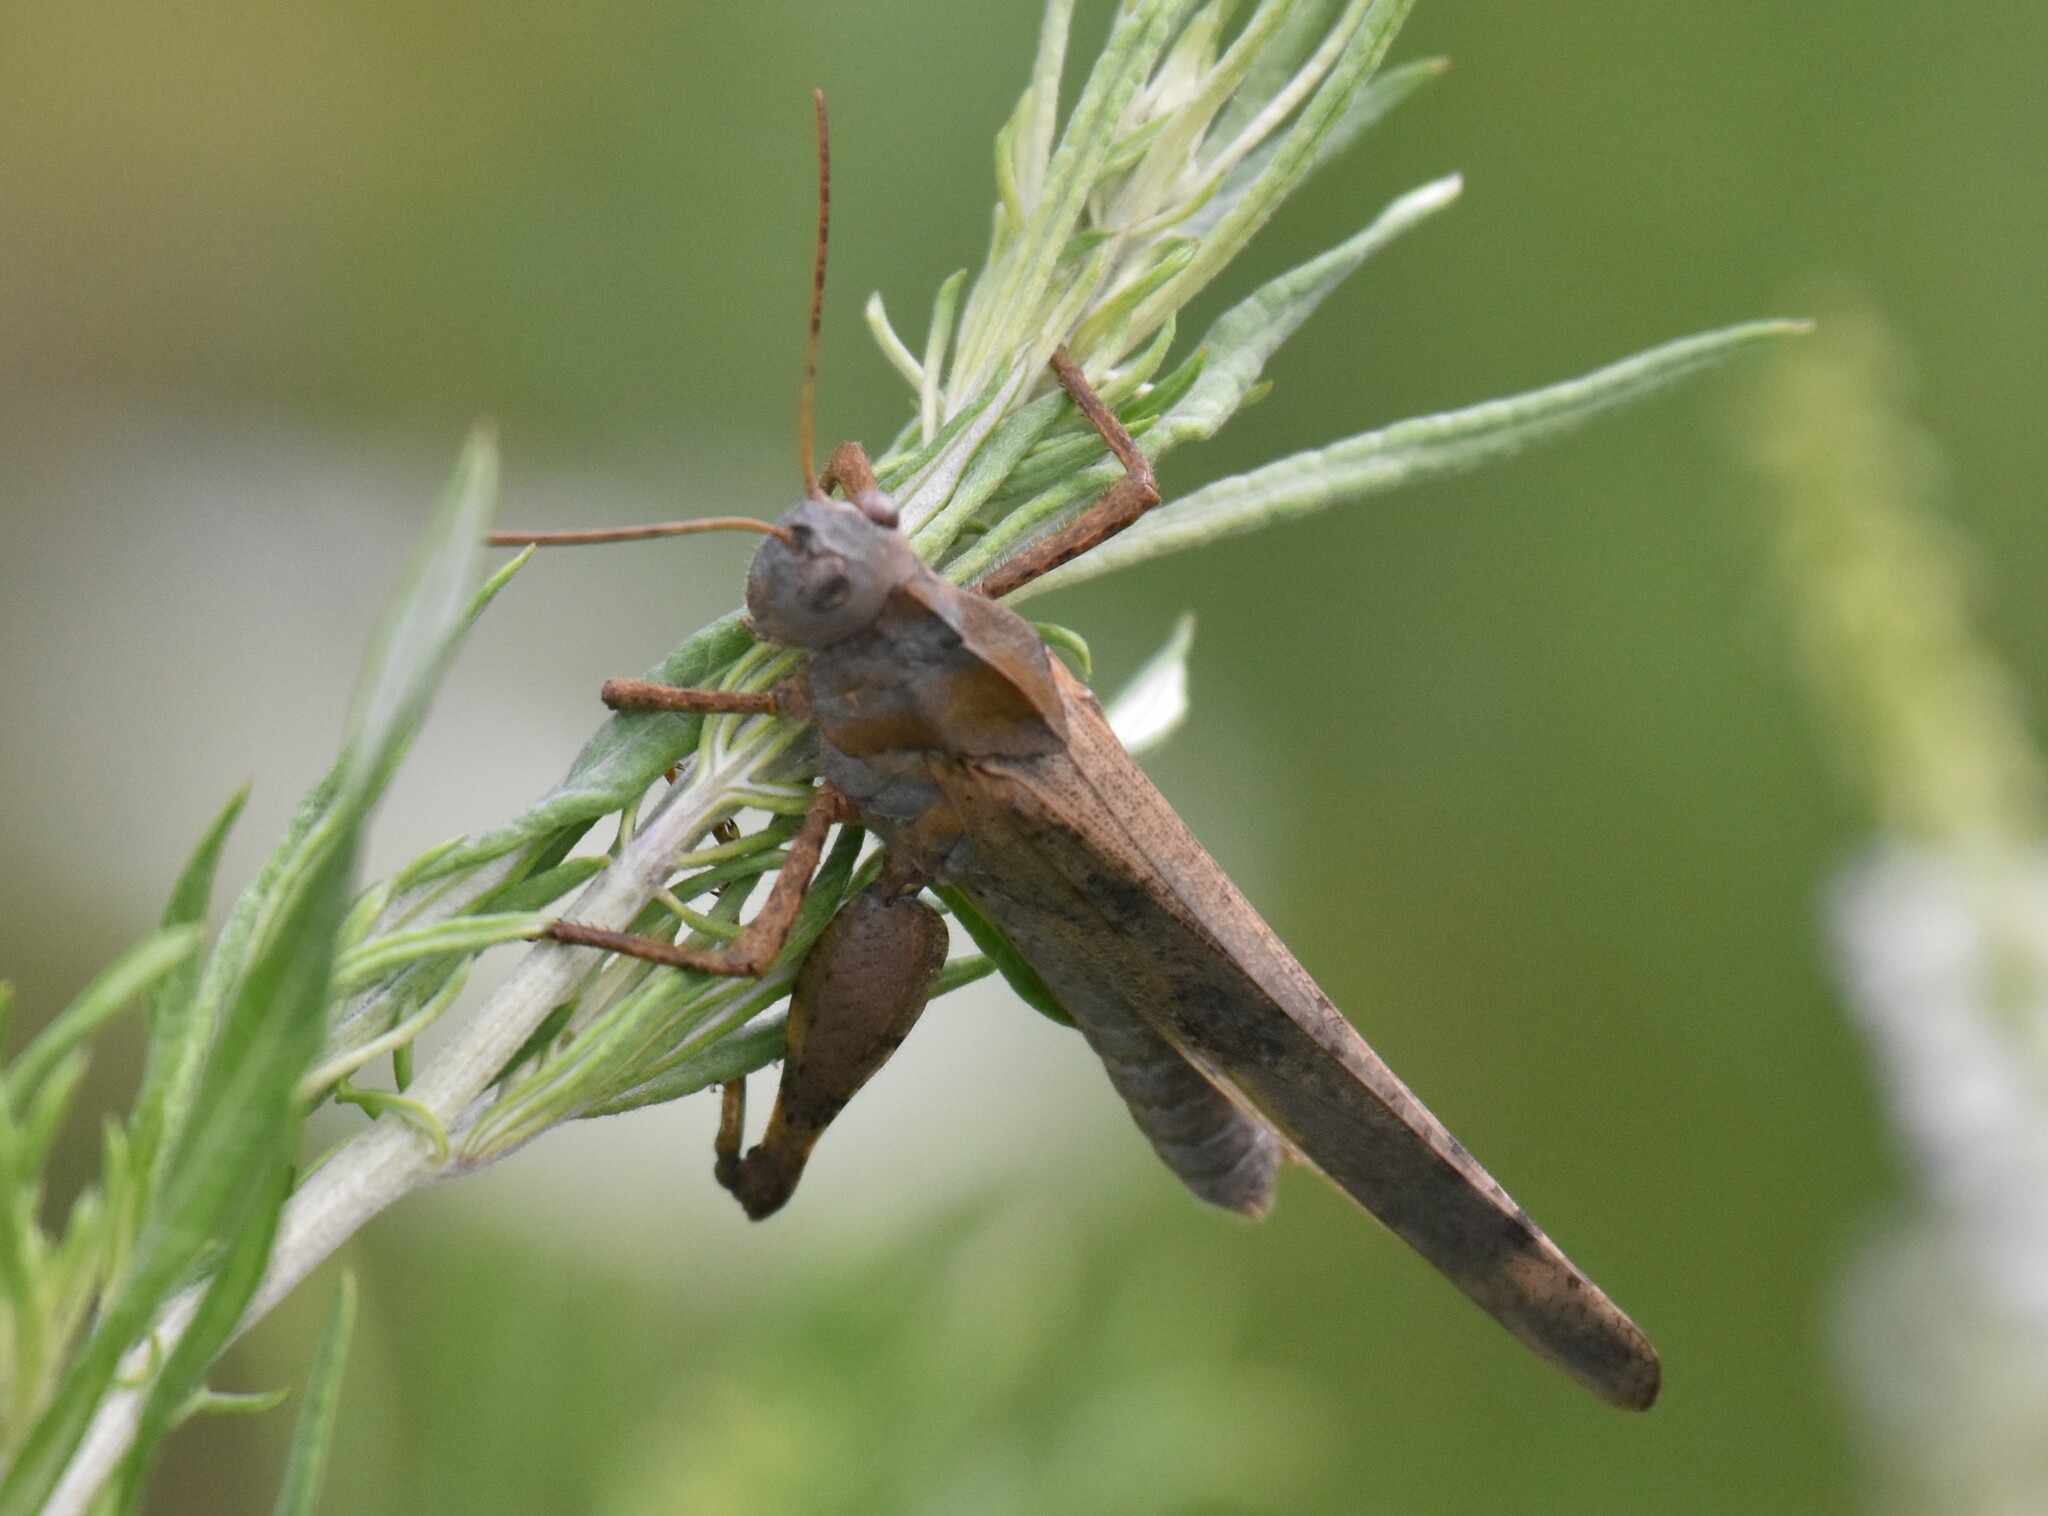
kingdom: Animalia
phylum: Arthropoda
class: Insecta
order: Orthoptera
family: Acrididae
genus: Dissosteira
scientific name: Dissosteira carolina
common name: Carolina grasshopper
